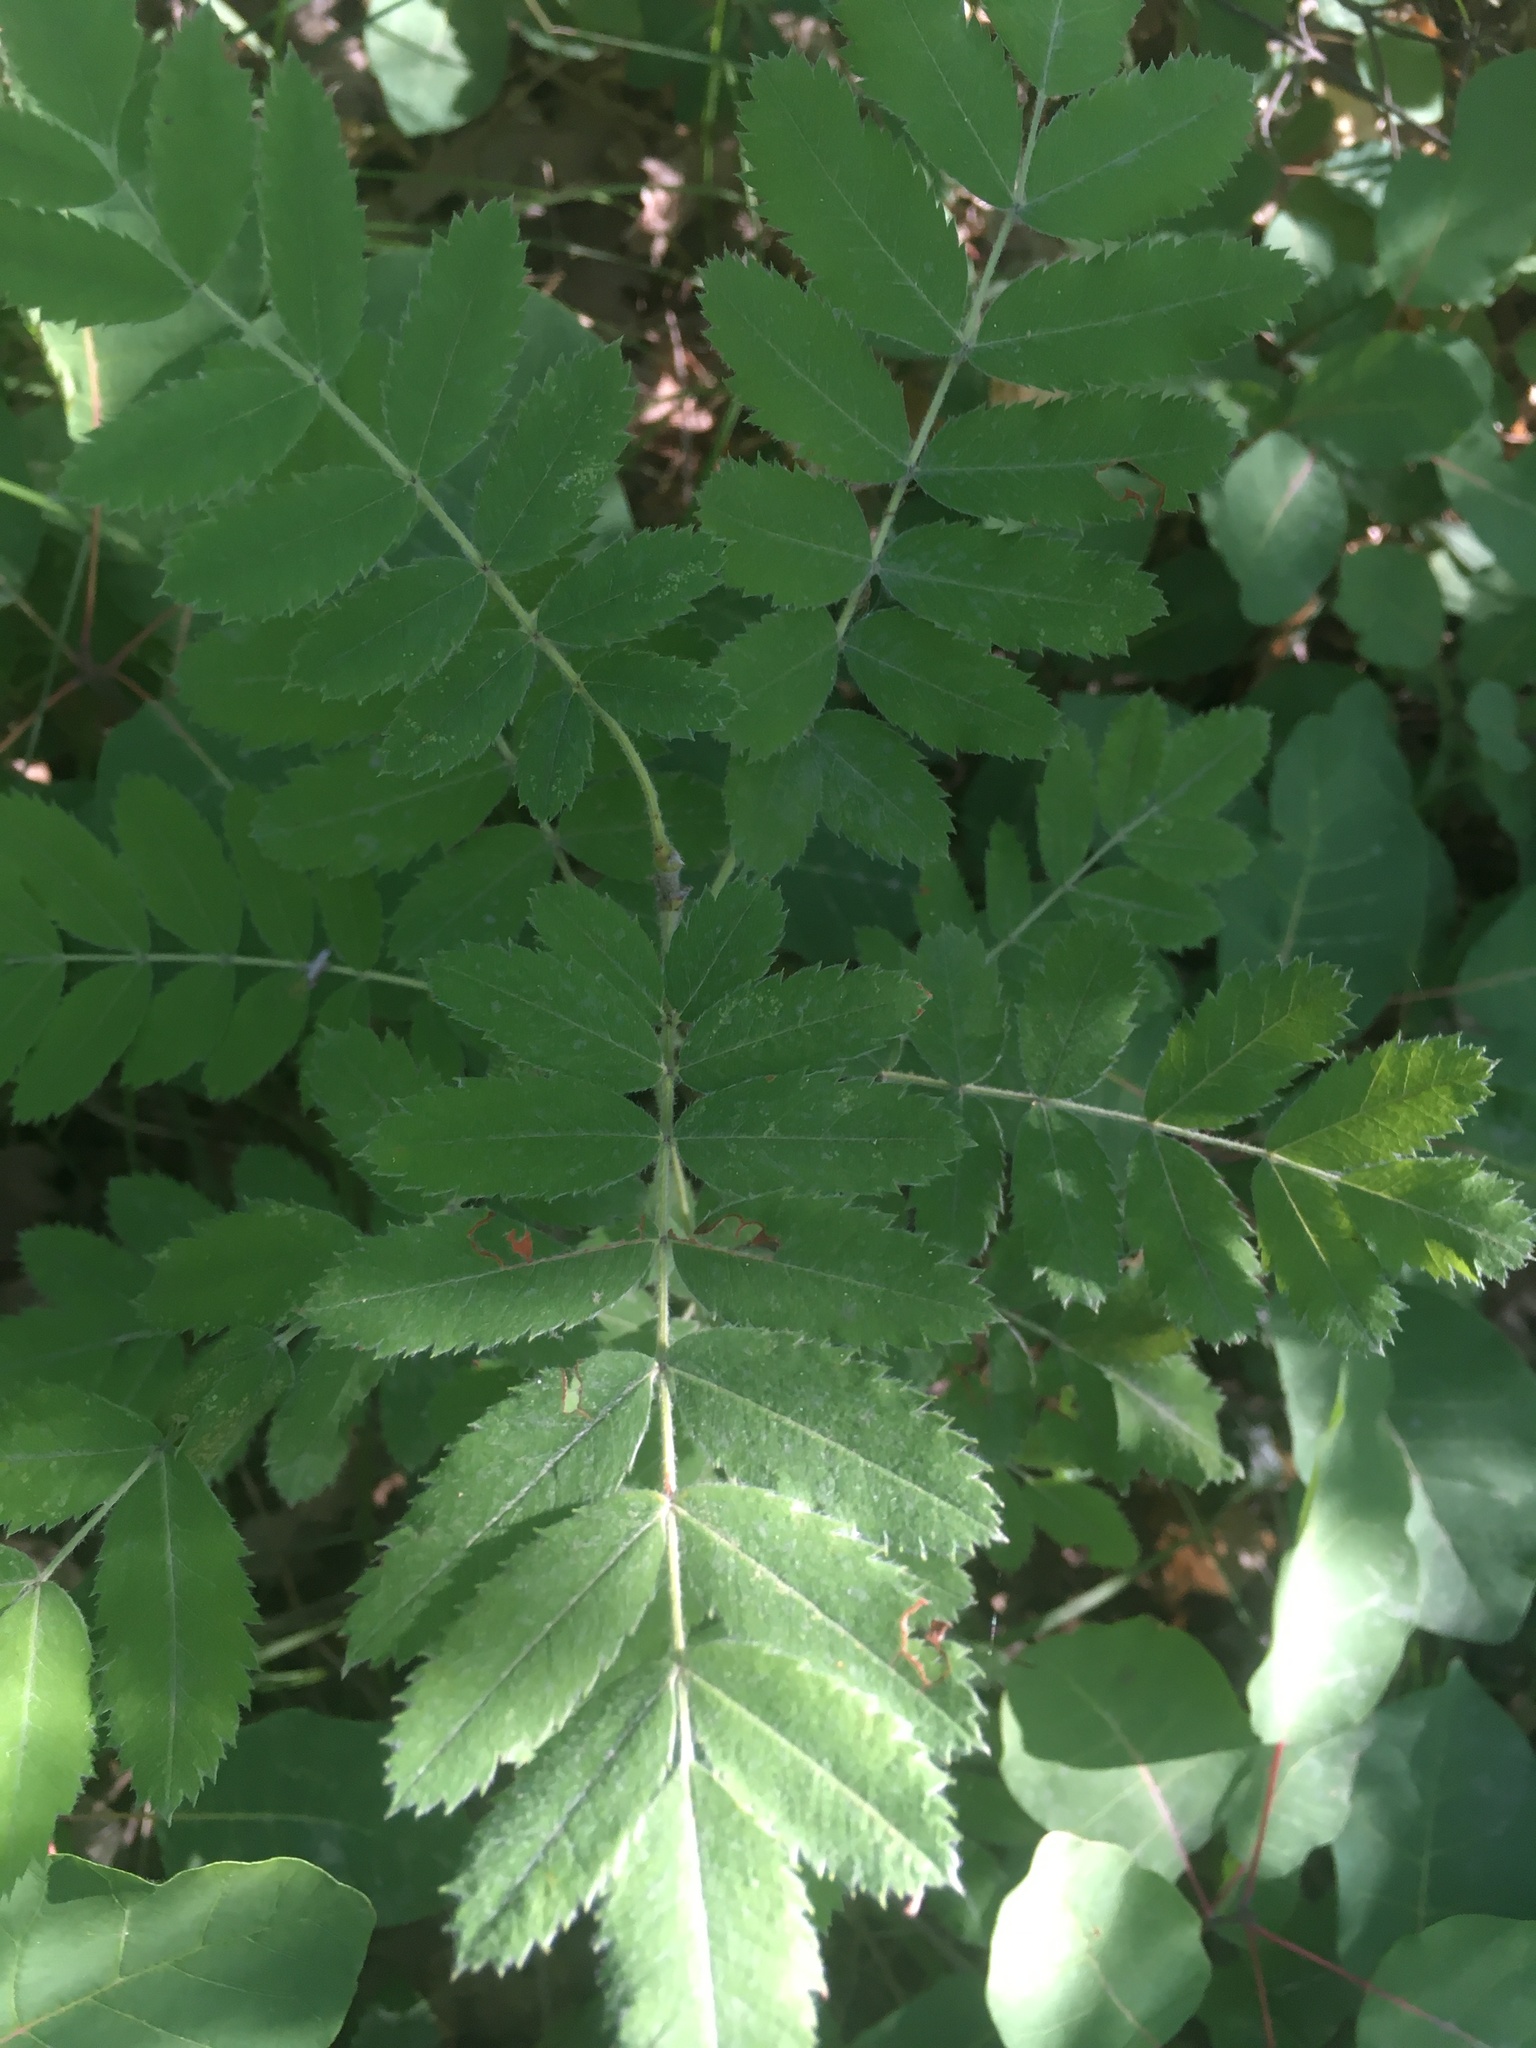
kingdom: Plantae
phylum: Tracheophyta
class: Magnoliopsida
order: Rosales
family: Rosaceae
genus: Sorbus
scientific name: Sorbus aucuparia
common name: Rowan
